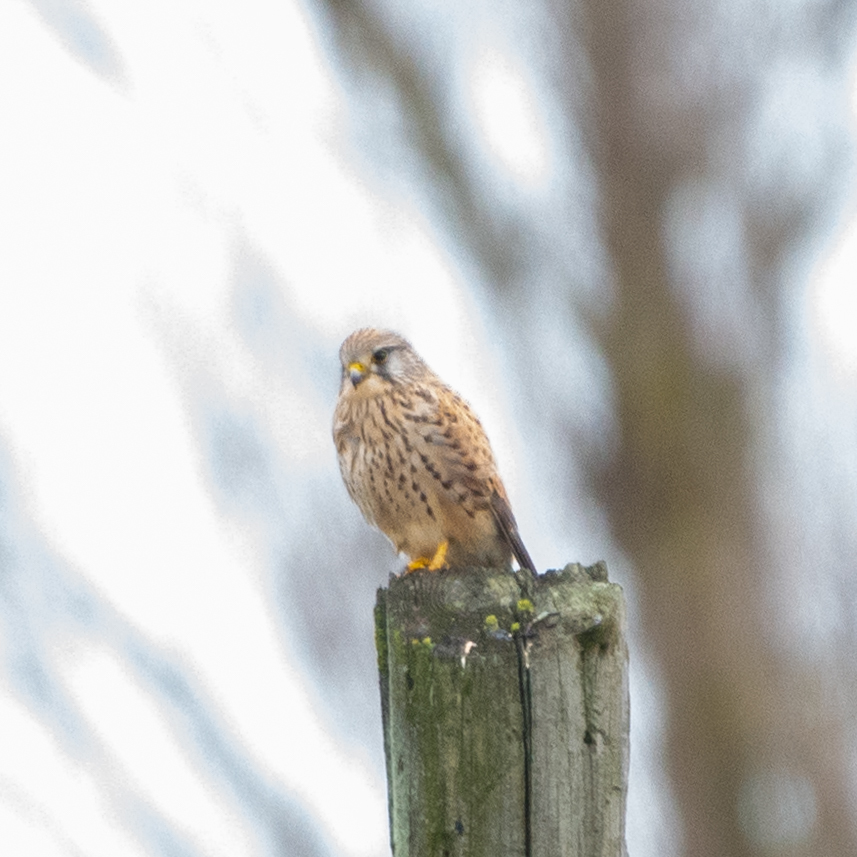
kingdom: Animalia
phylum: Chordata
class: Aves
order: Falconiformes
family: Falconidae
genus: Falco
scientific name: Falco tinnunculus
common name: Common kestrel
